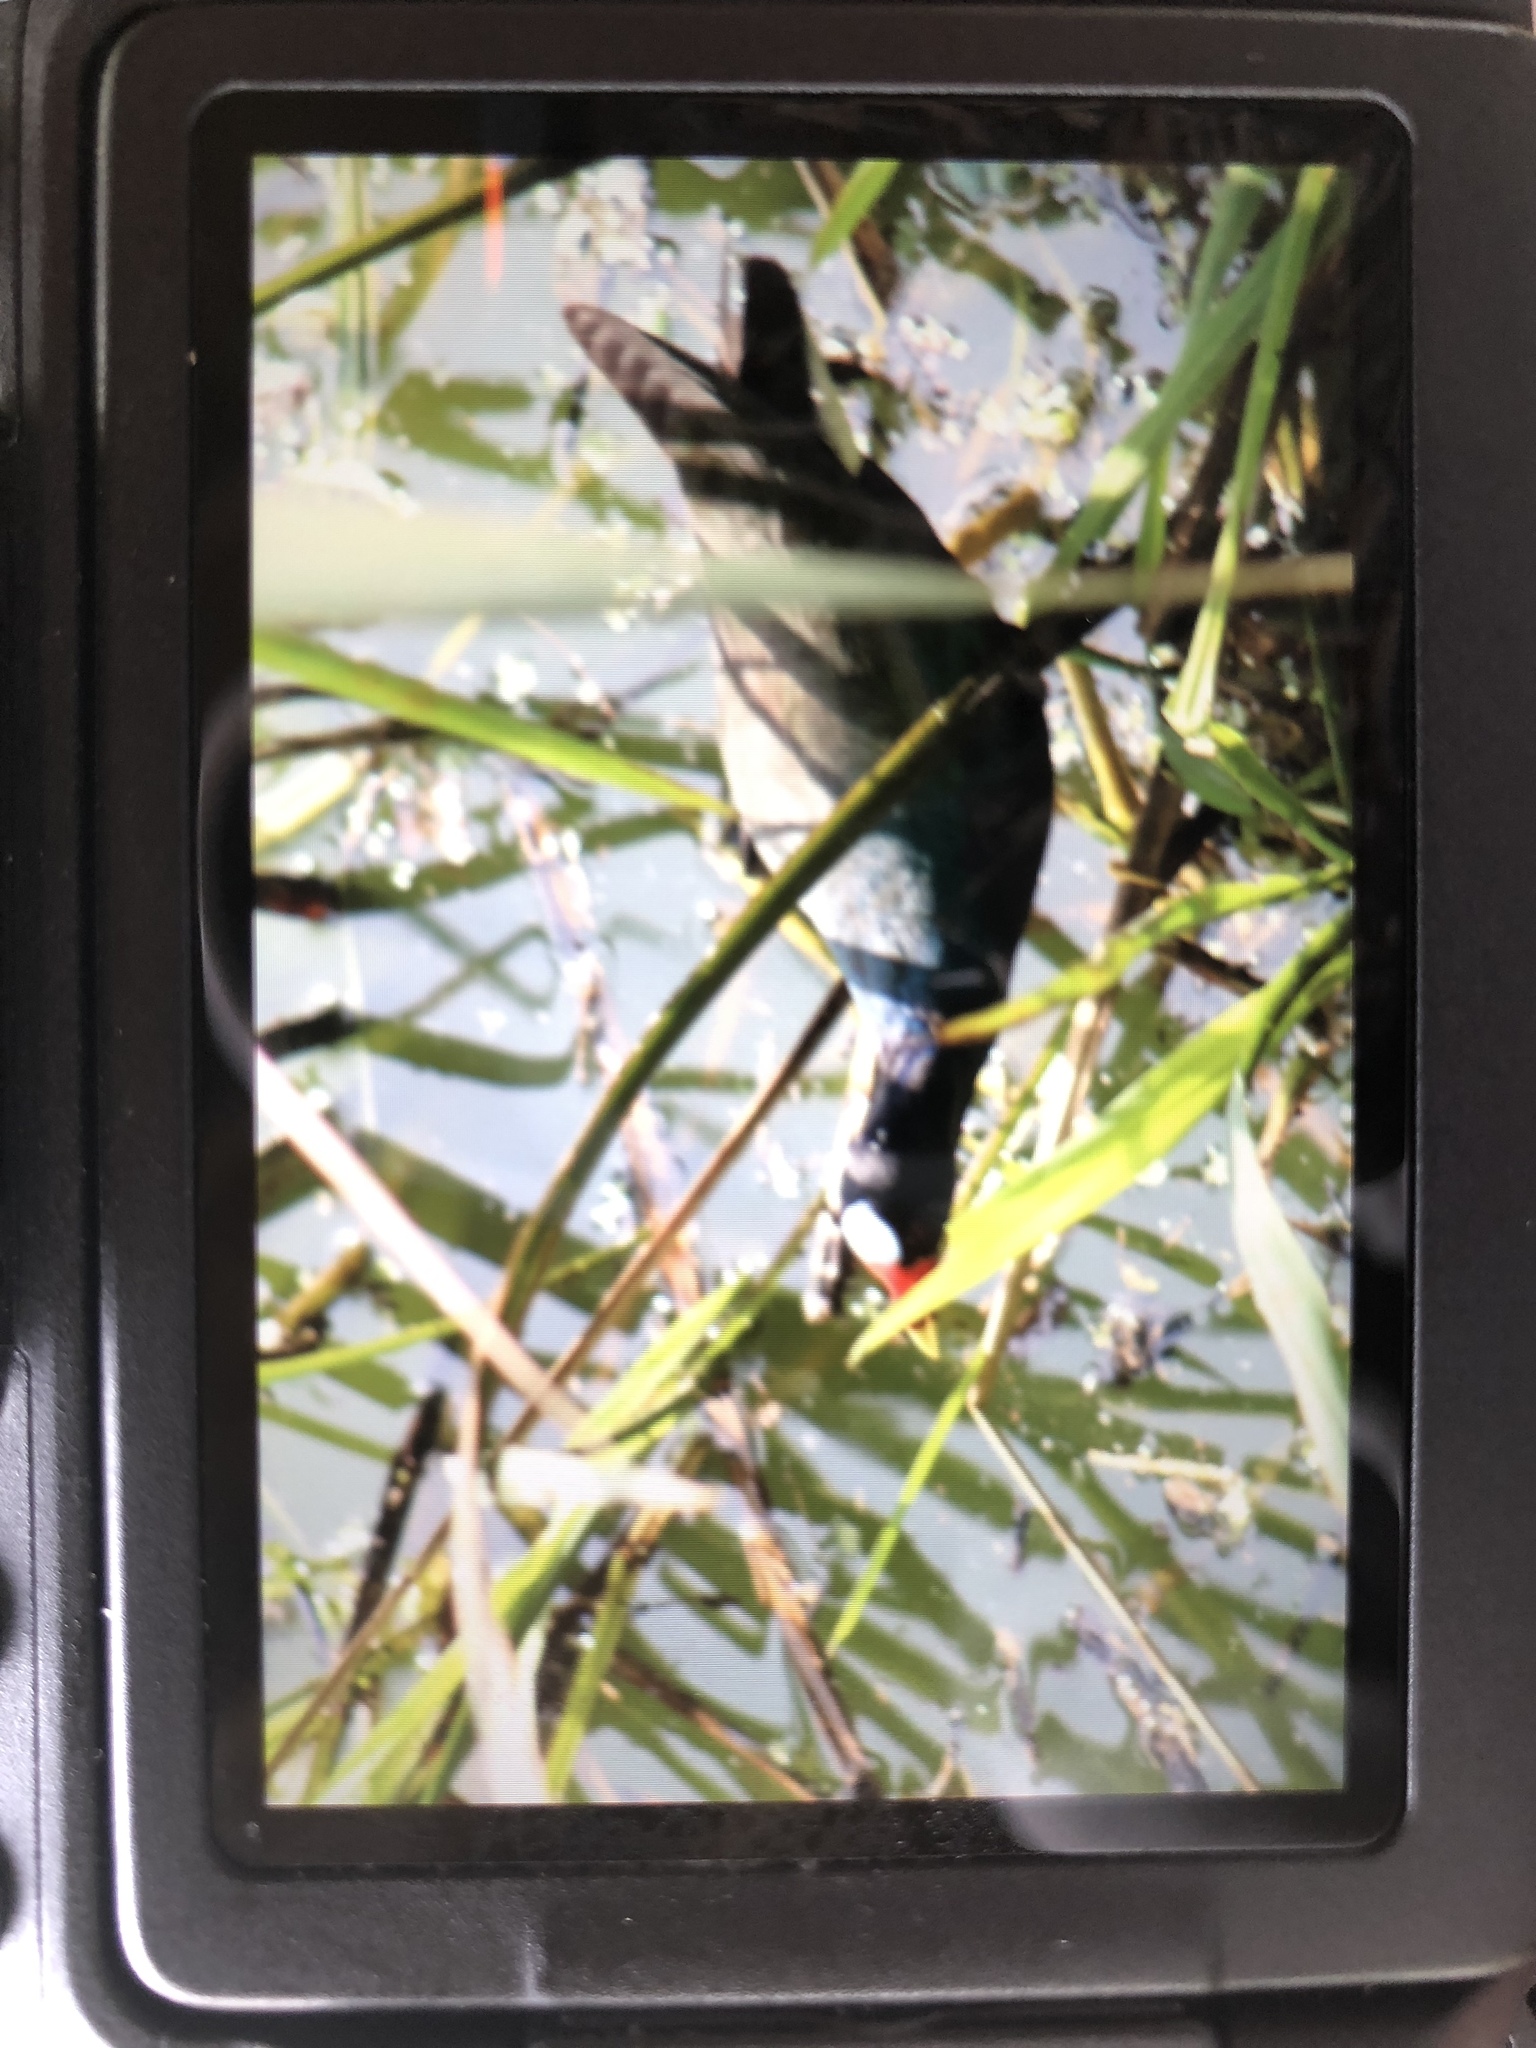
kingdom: Animalia
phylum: Chordata
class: Aves
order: Gruiformes
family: Rallidae
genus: Porphyrio
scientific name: Porphyrio martinica
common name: Purple gallinule
